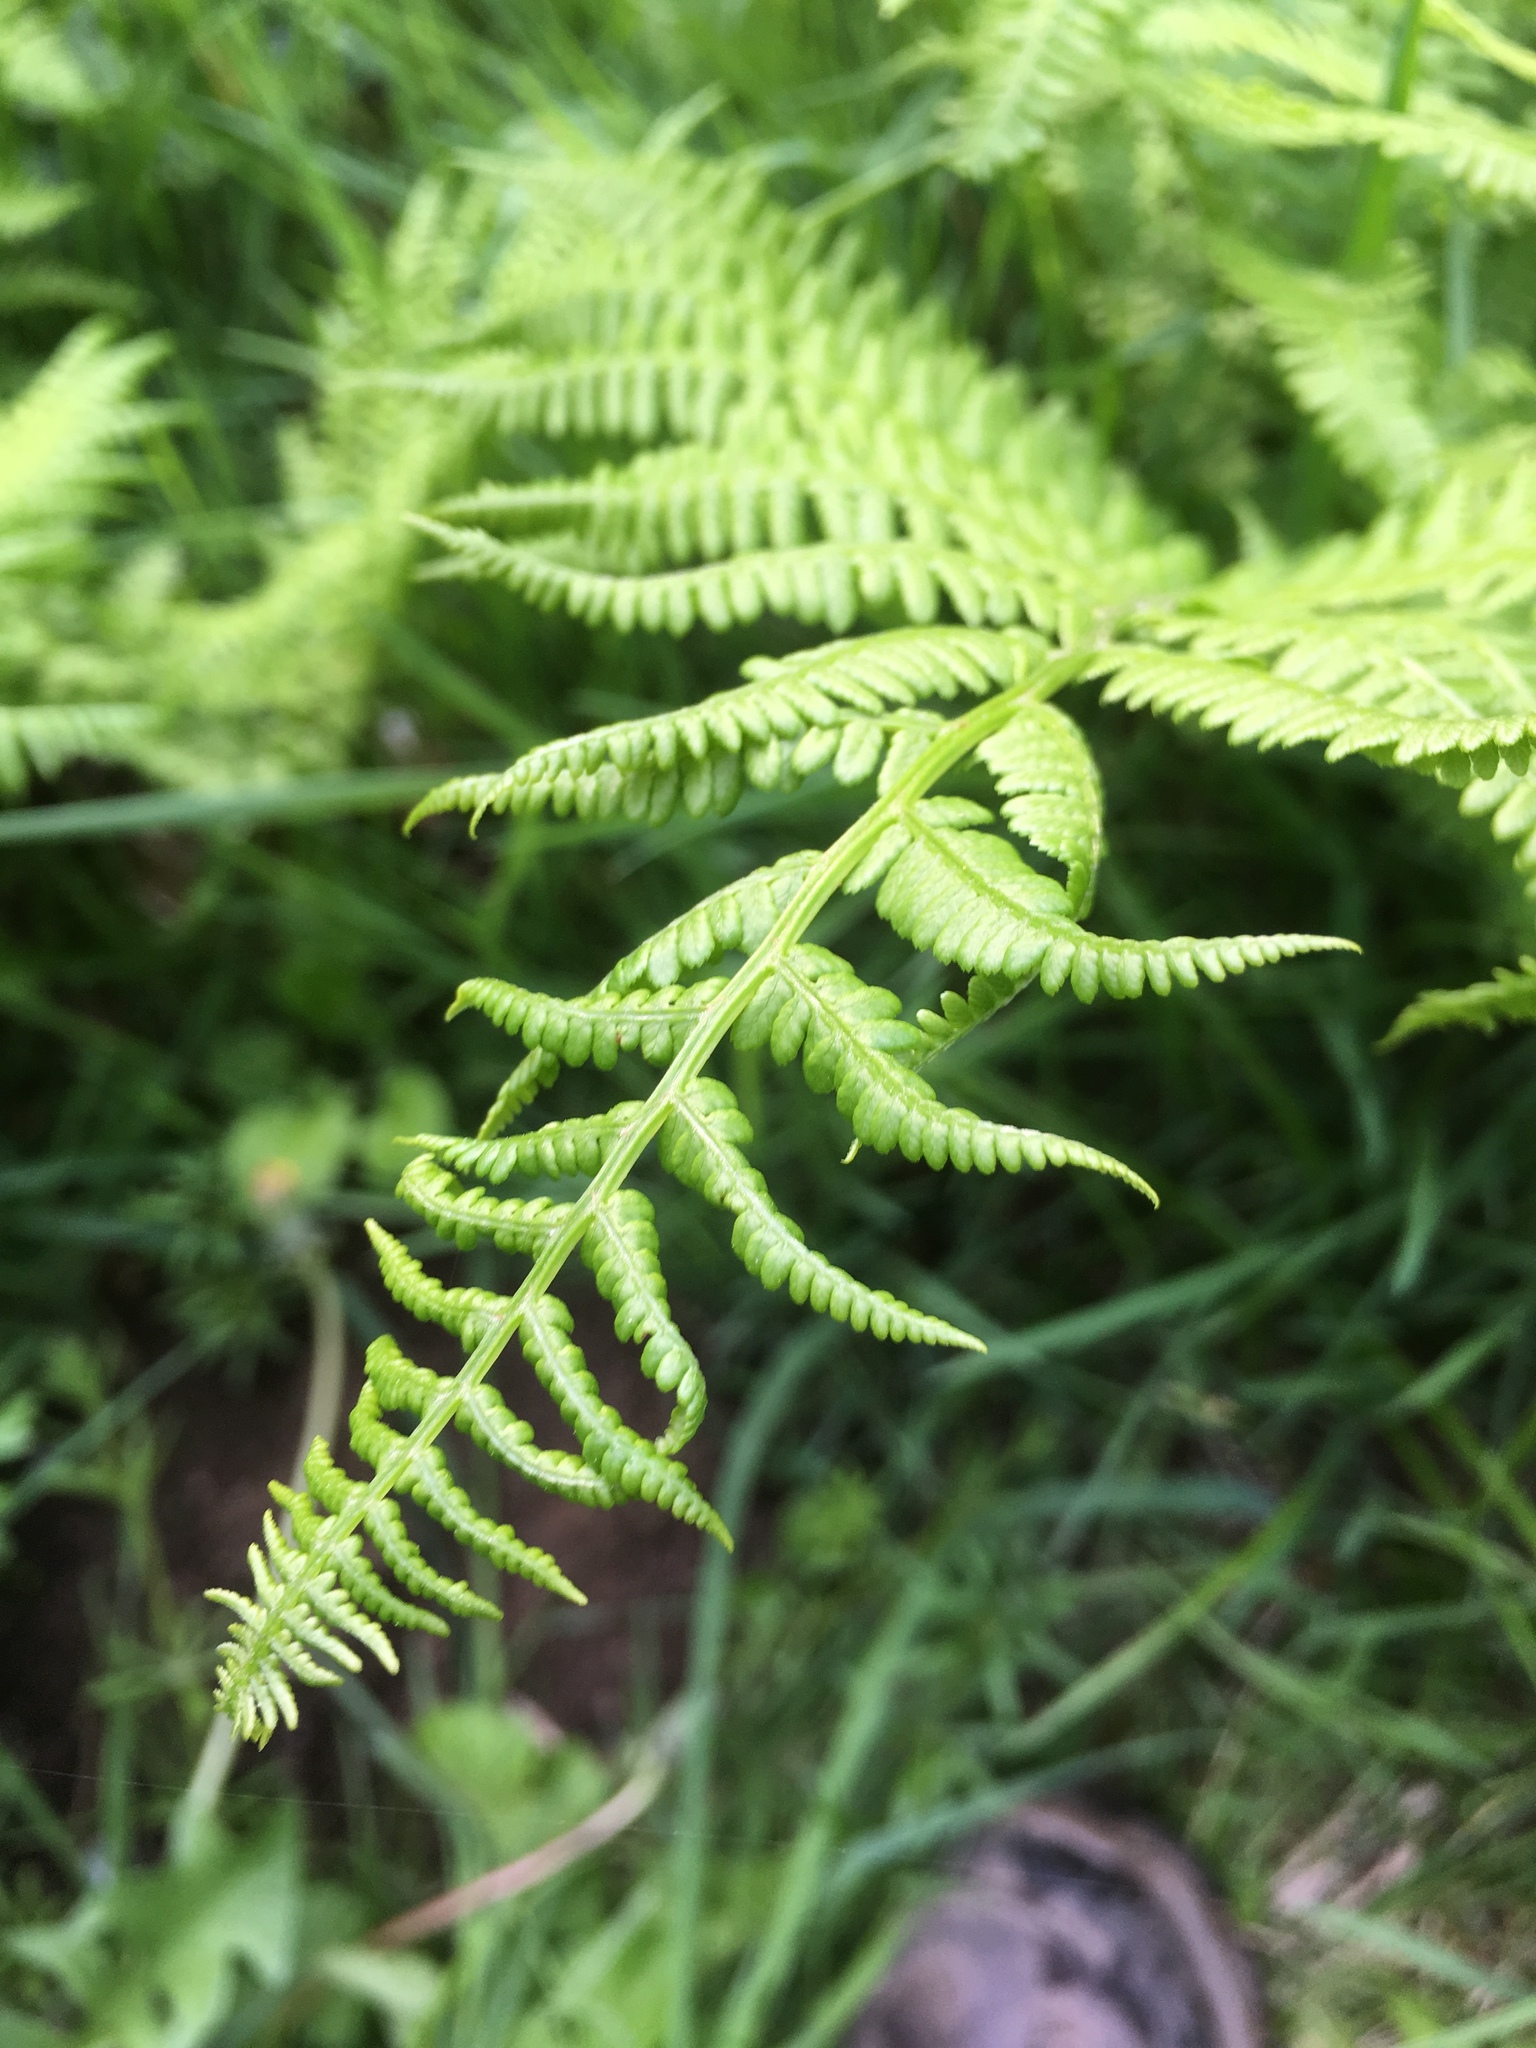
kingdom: Plantae
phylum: Tracheophyta
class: Polypodiopsida
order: Polypodiales
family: Athyriaceae
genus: Athyrium
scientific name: Athyrium cyclosorum
